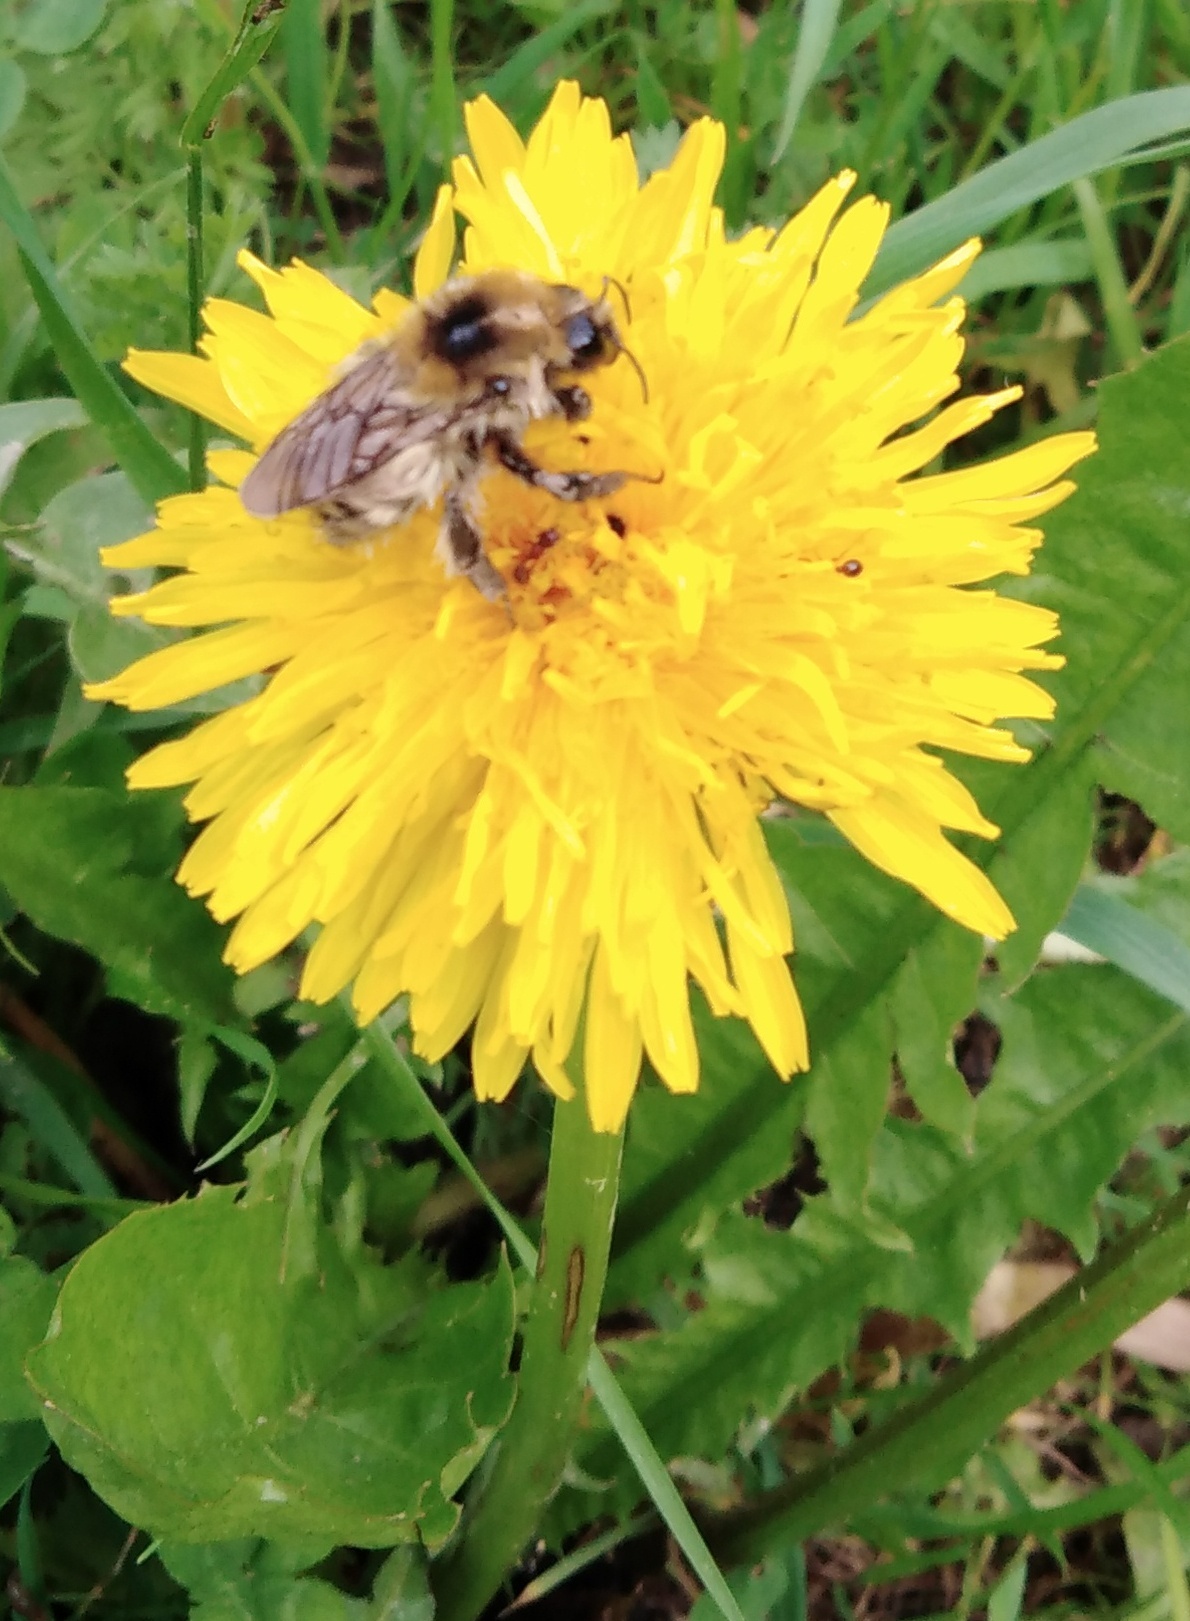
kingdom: Animalia
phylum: Arthropoda
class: Insecta
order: Hymenoptera
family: Apidae
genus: Bombus
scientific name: Bombus laesus
